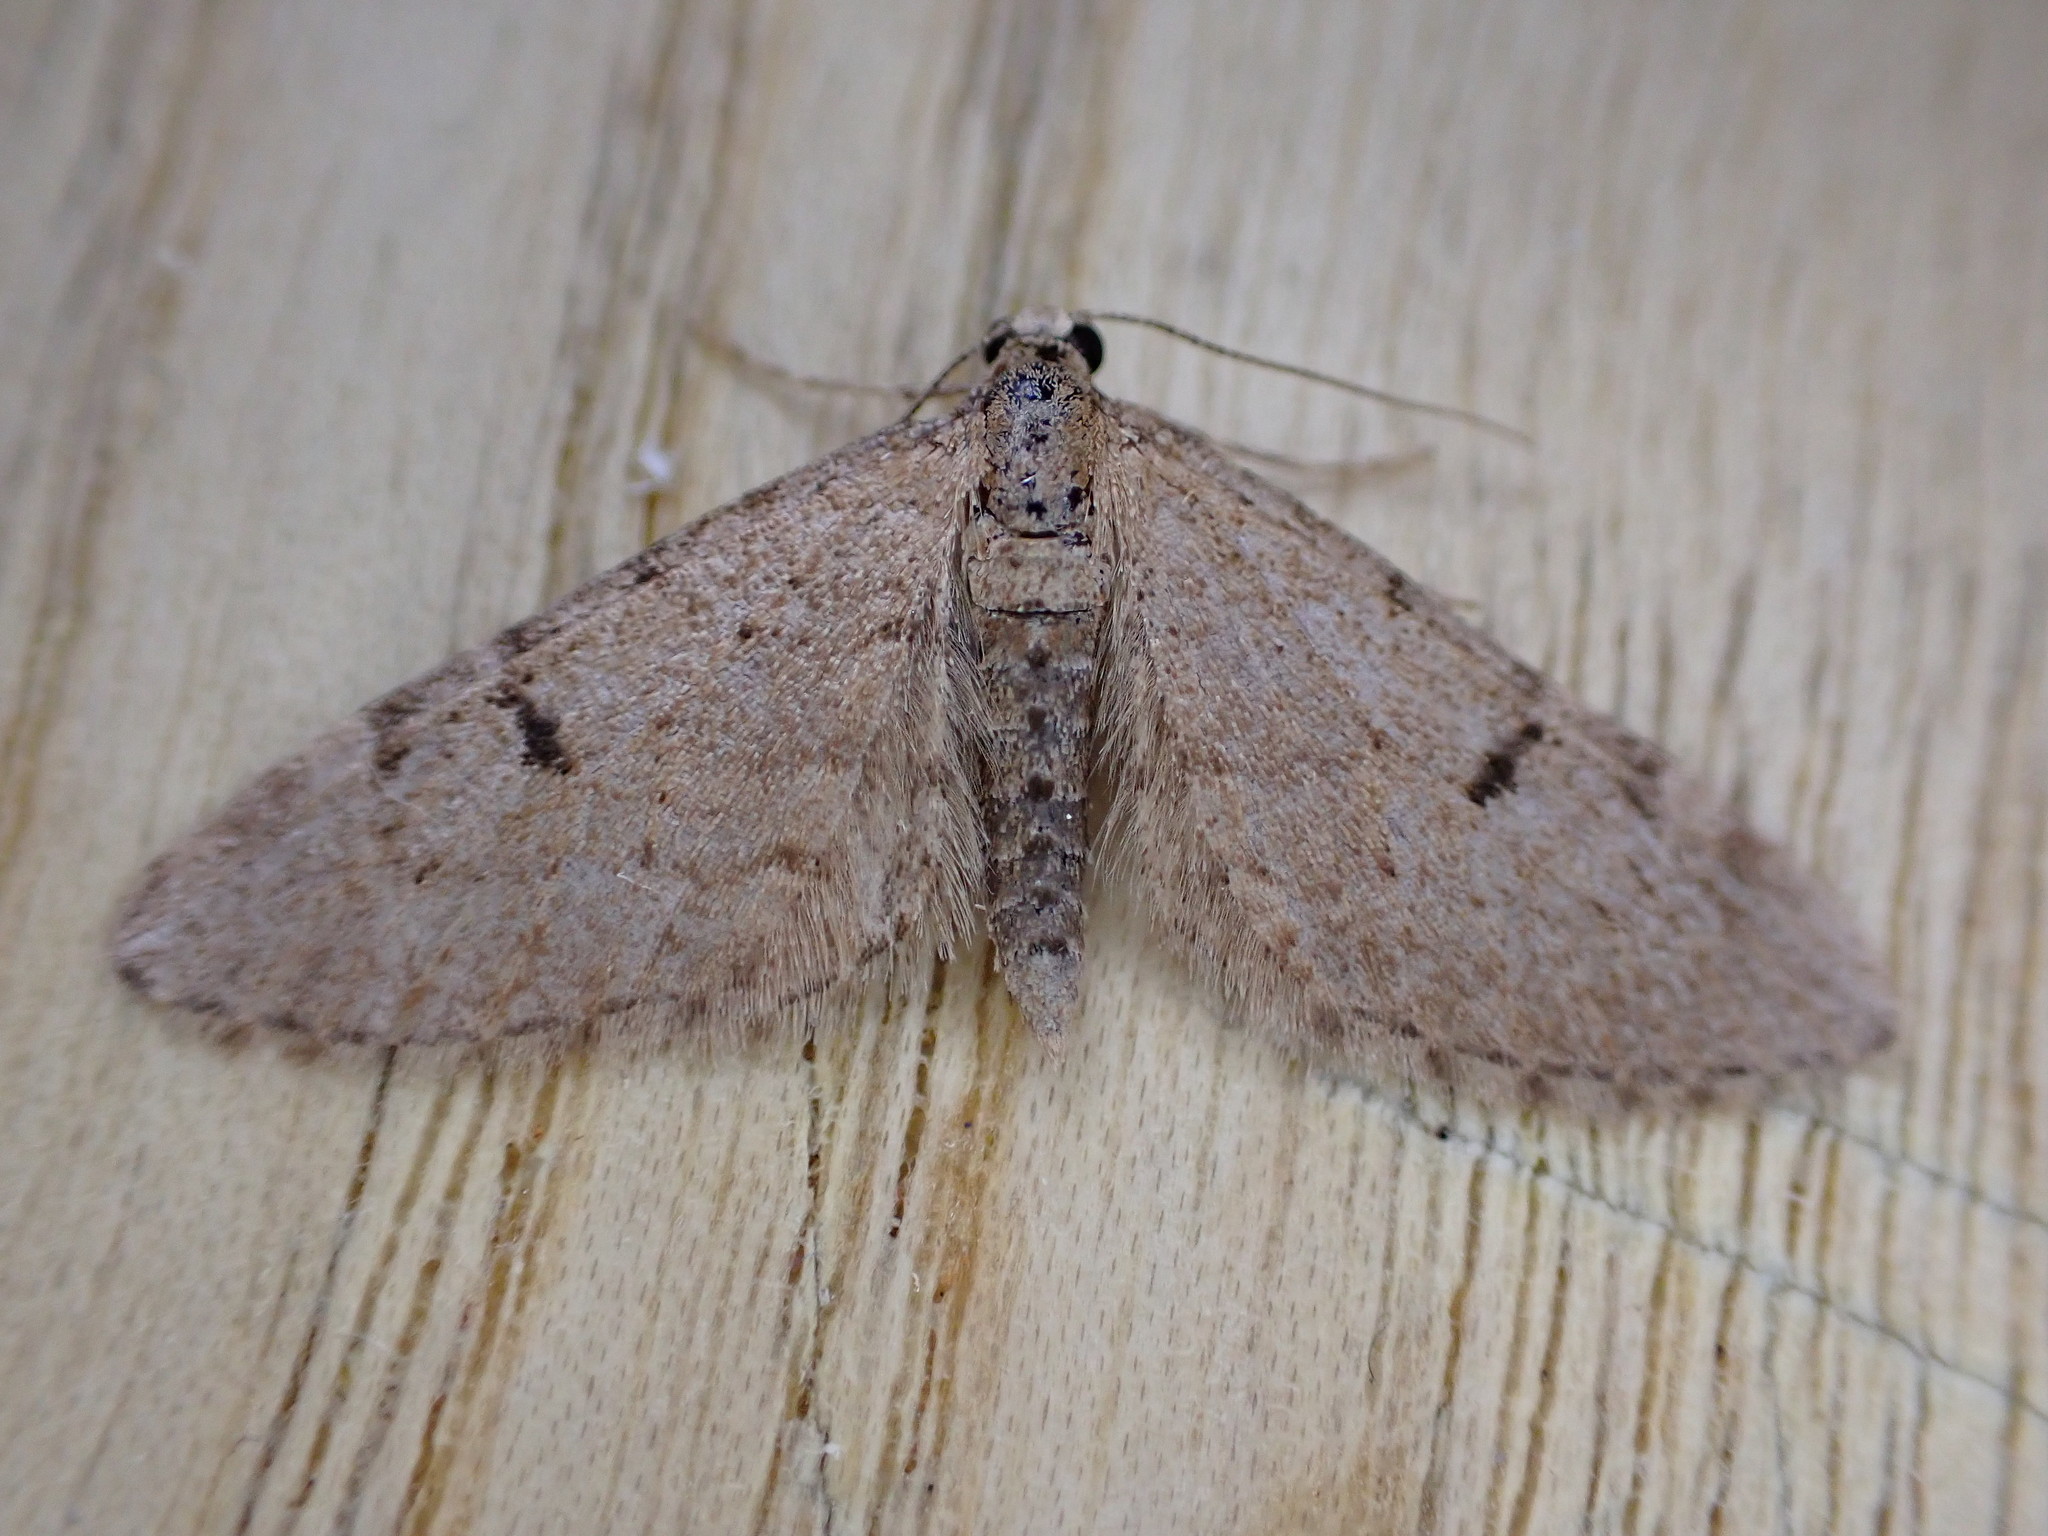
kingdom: Animalia
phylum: Arthropoda
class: Insecta
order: Lepidoptera
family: Geometridae
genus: Eupithecia
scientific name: Eupithecia indigata
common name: Ochreous pug
